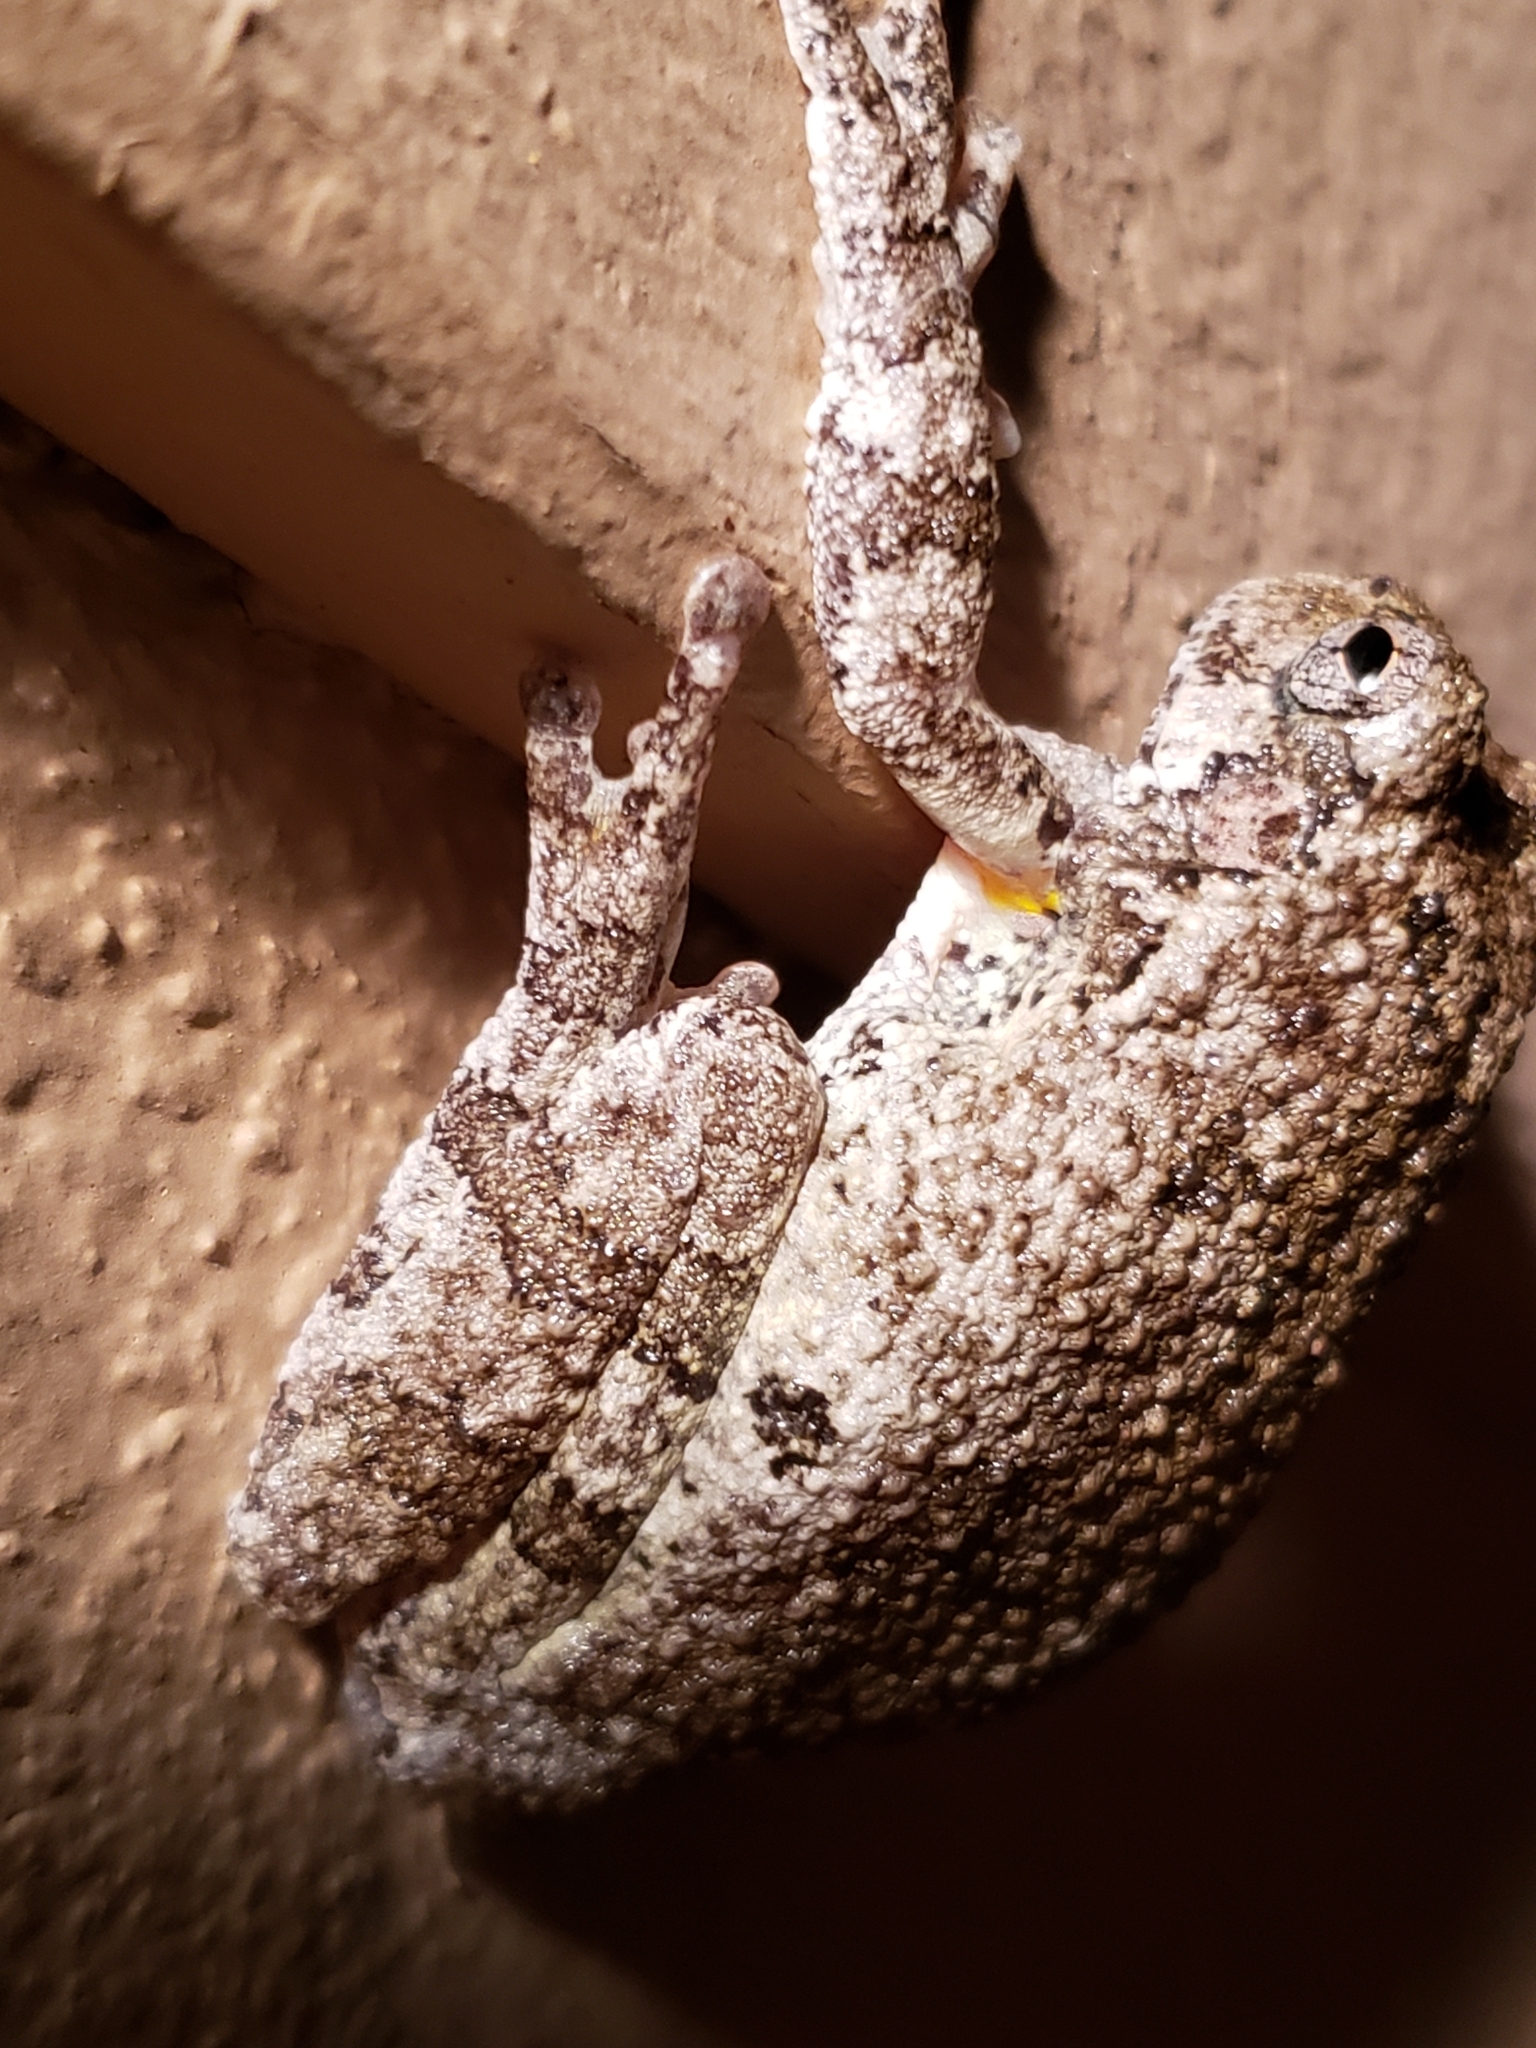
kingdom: Animalia
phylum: Chordata
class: Amphibia
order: Anura
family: Hylidae
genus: Hyla
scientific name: Hyla
